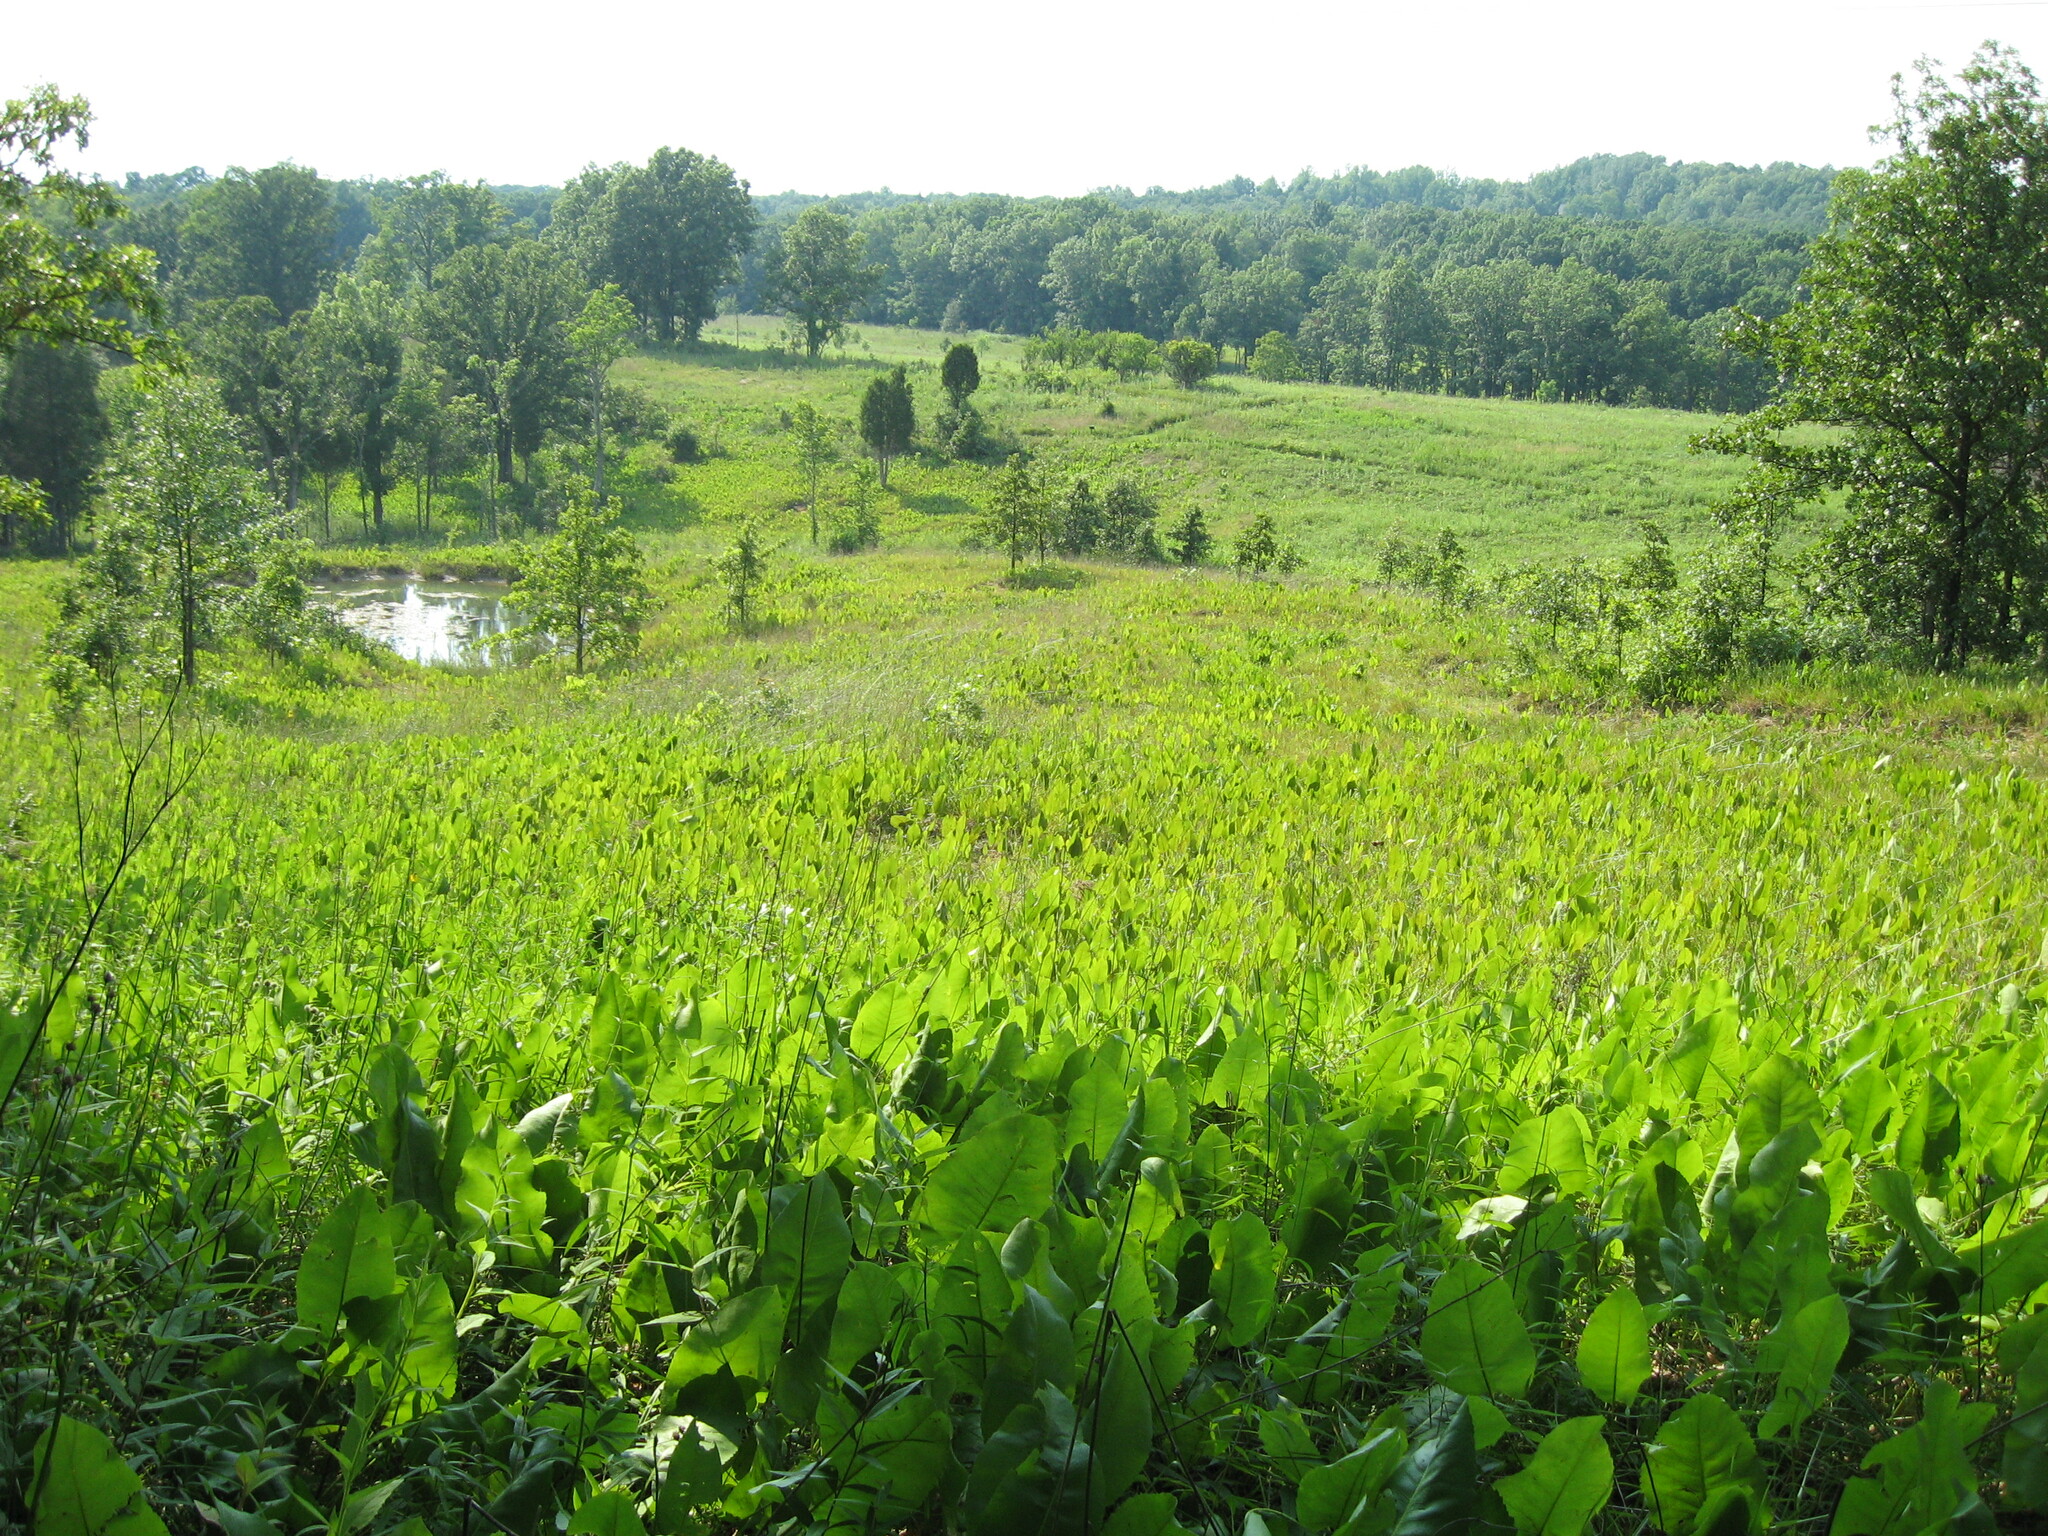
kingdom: Plantae
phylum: Tracheophyta
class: Magnoliopsida
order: Asterales
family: Asteraceae
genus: Silphium
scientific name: Silphium terebinthinaceum
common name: Basal-leaf rosinweed
